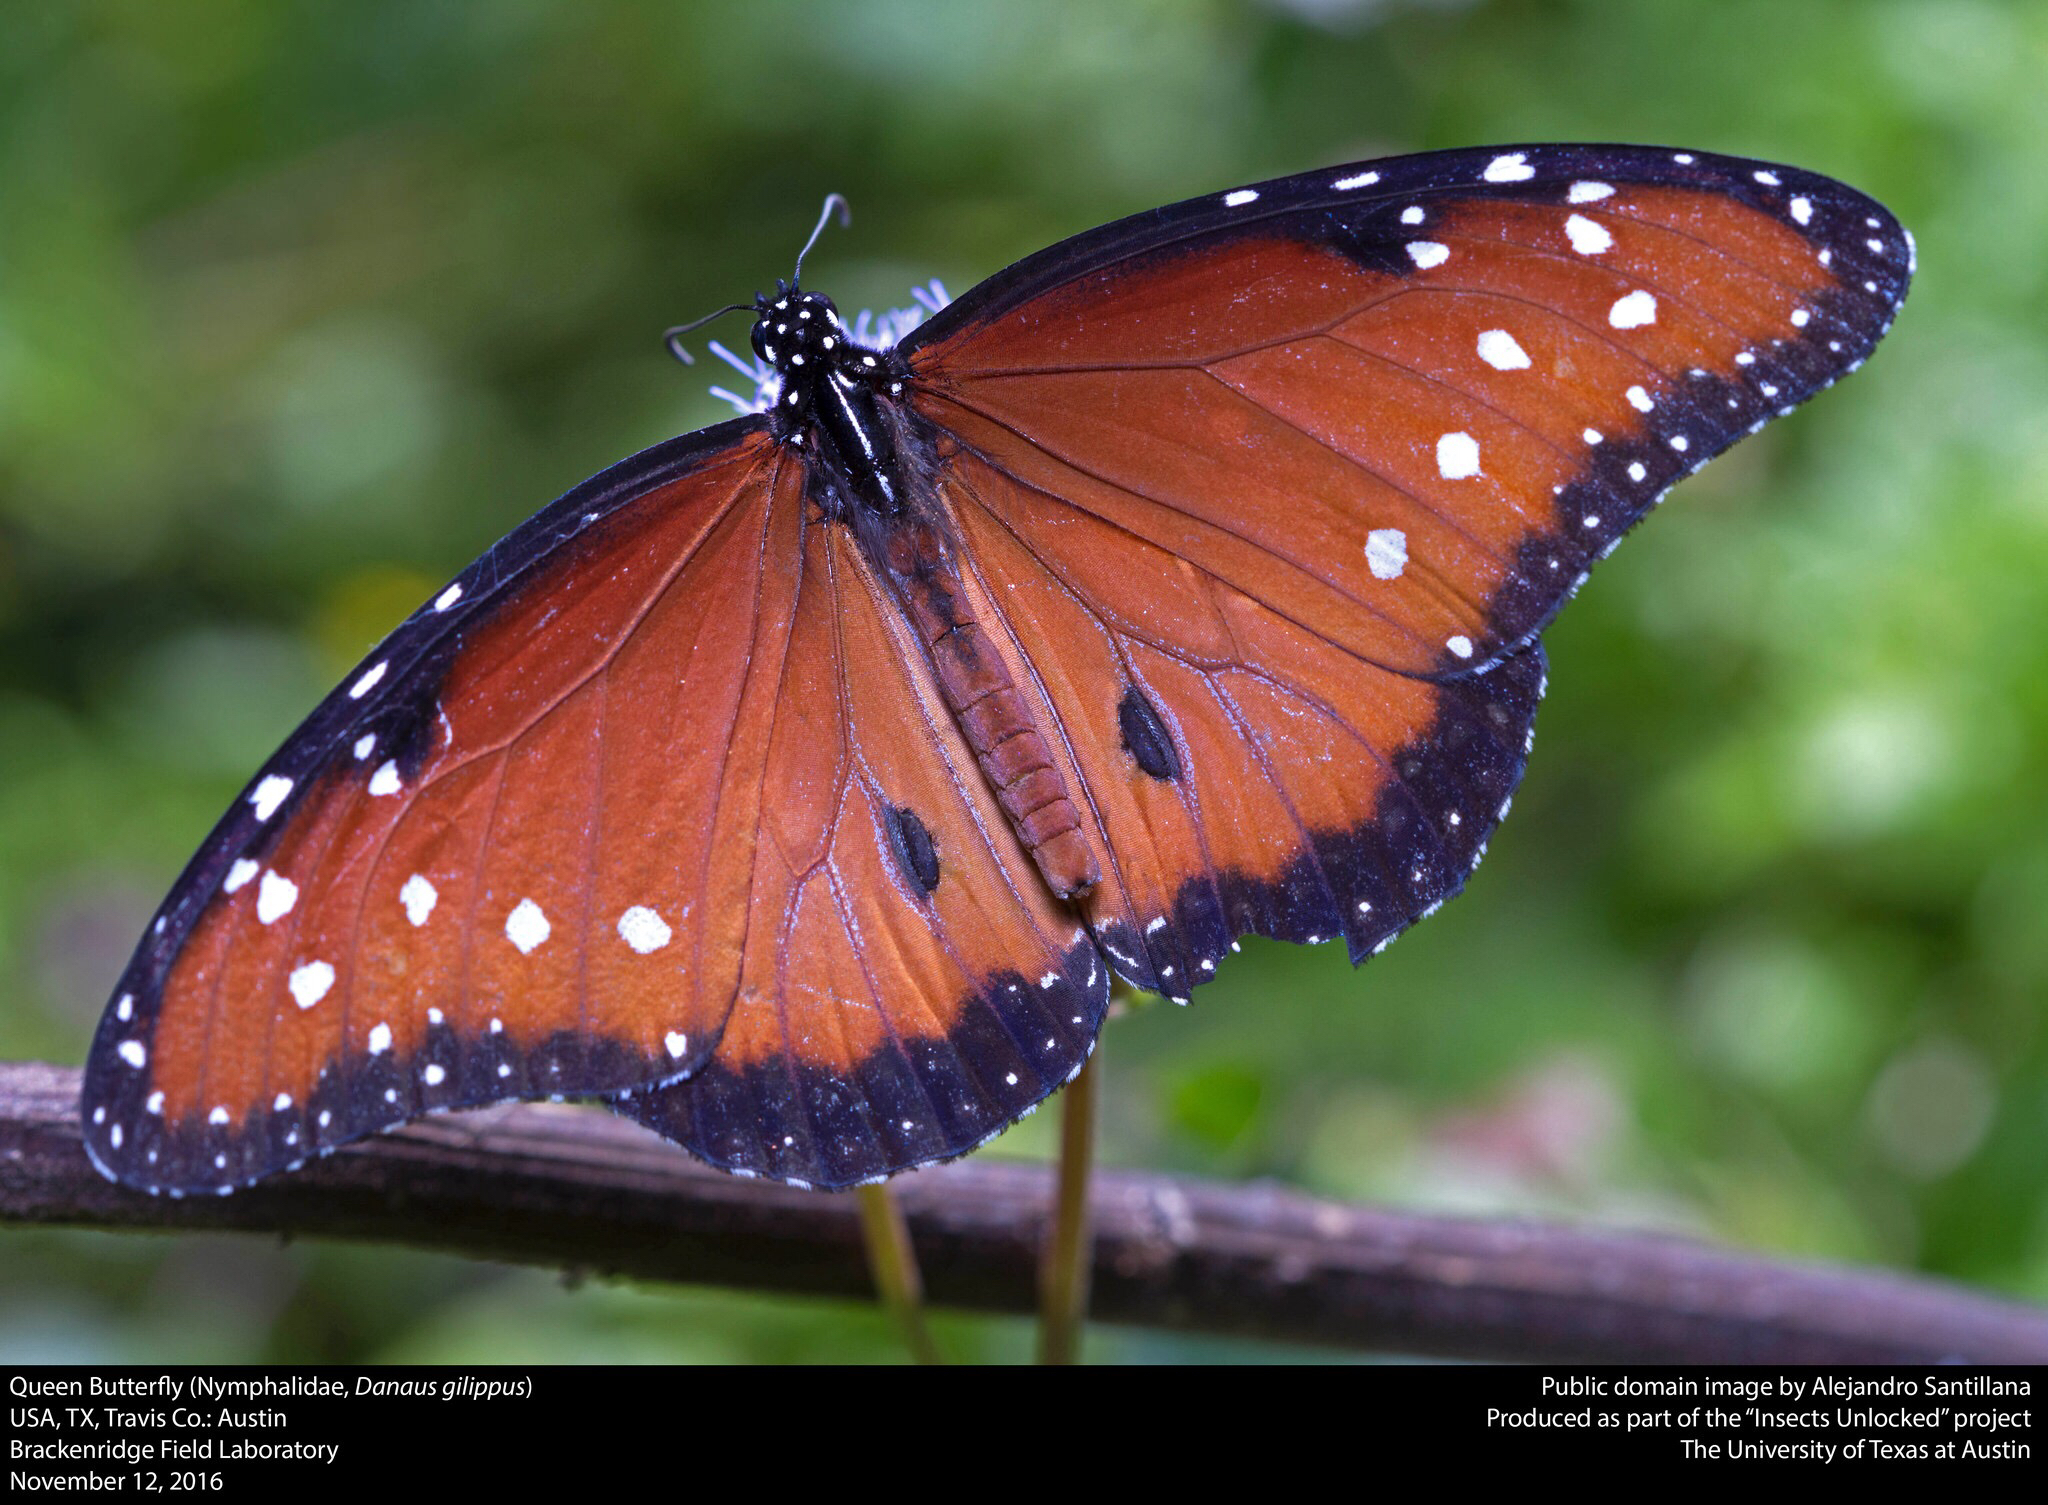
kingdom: Animalia
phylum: Arthropoda
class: Insecta
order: Lepidoptera
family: Nymphalidae
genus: Danaus
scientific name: Danaus gilippus
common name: Queen
